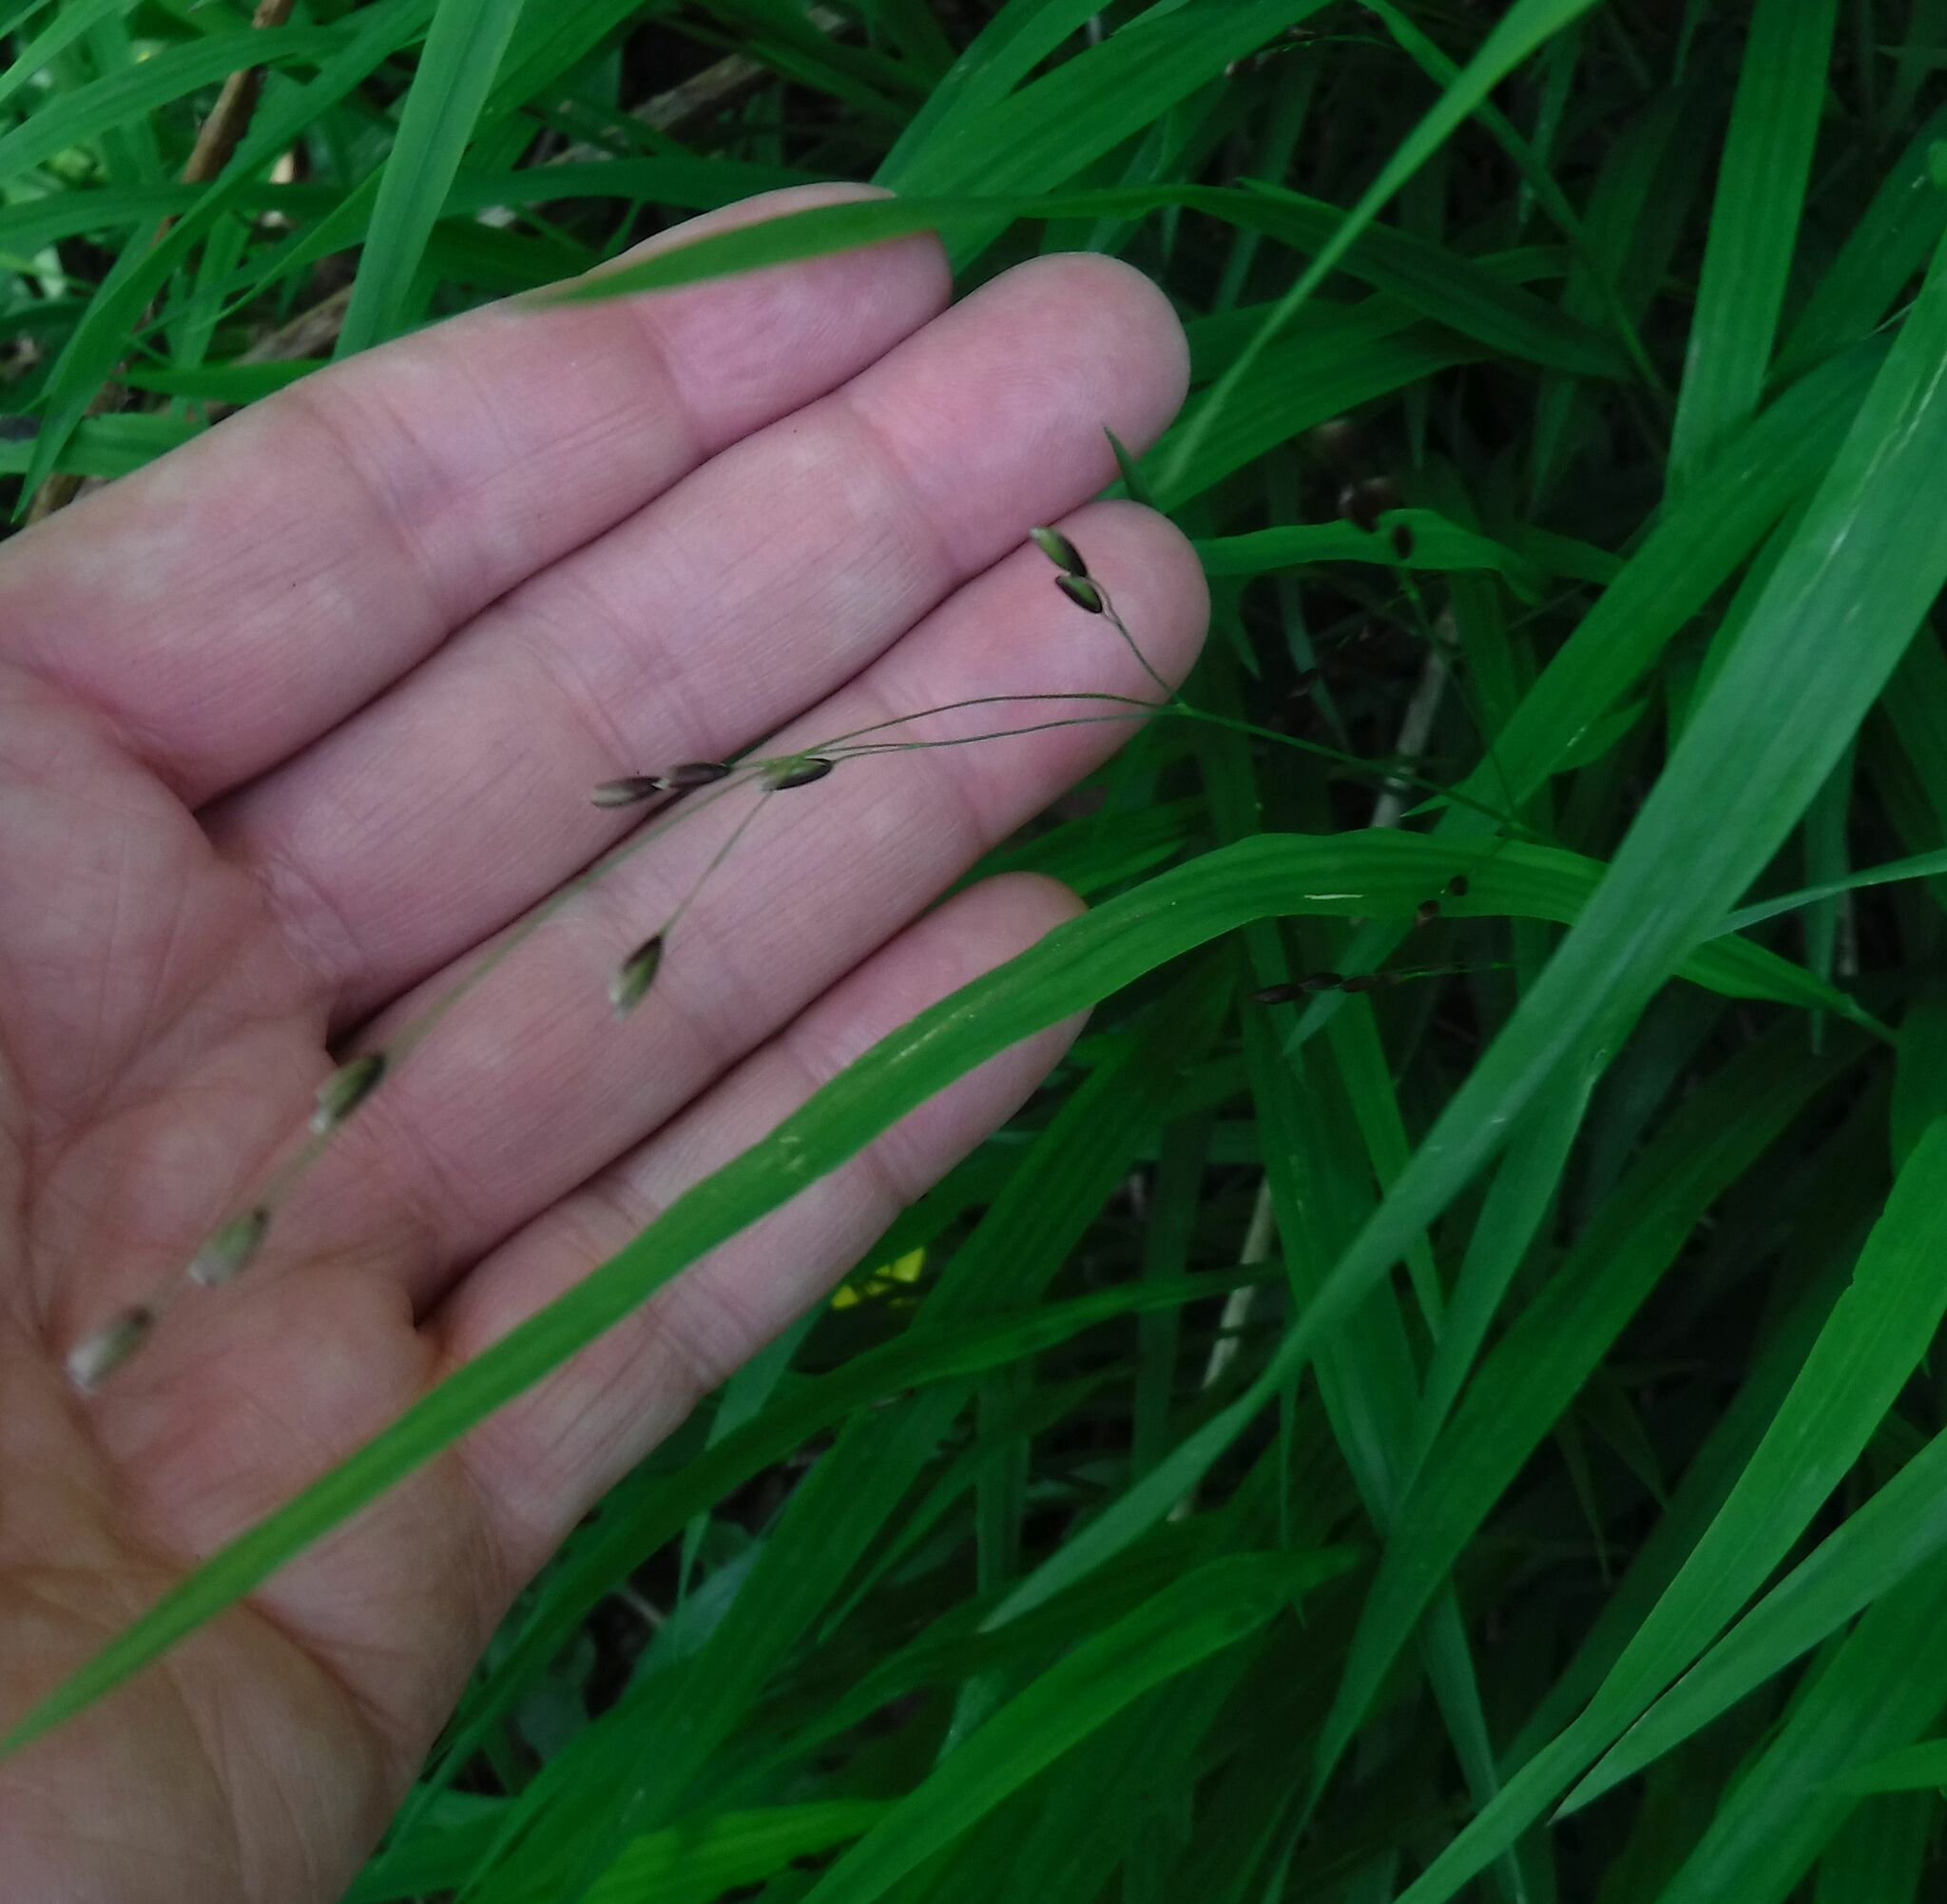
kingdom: Plantae
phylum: Tracheophyta
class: Liliopsida
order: Poales
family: Poaceae
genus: Melica
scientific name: Melica uniflora
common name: Wood melick
